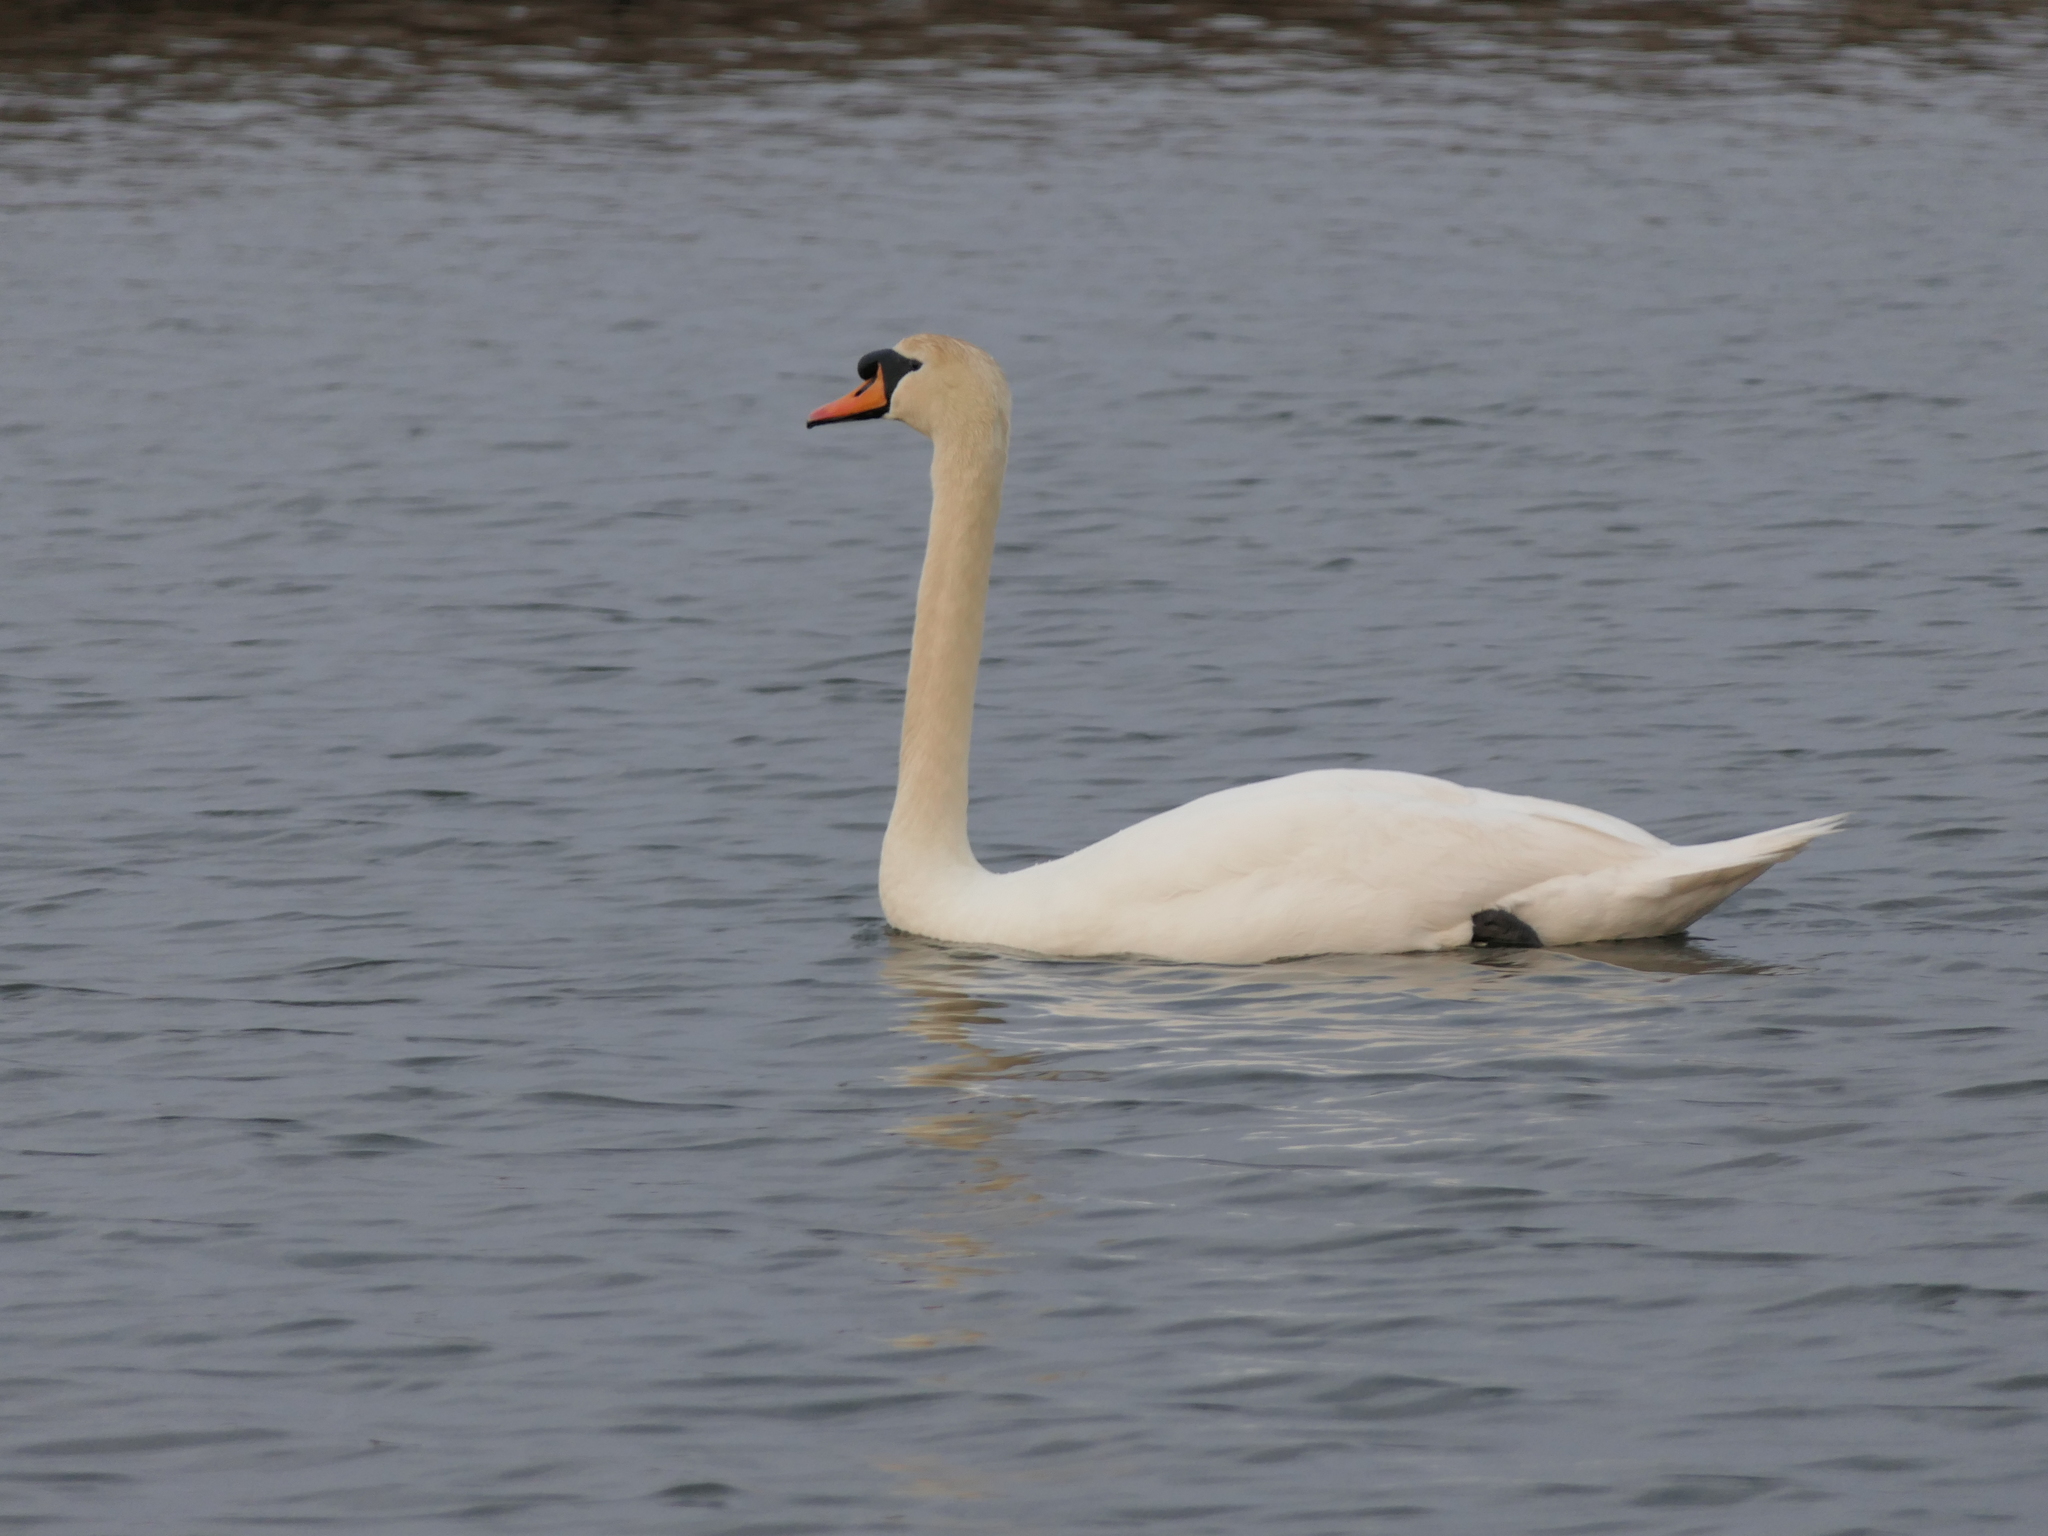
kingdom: Animalia
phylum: Chordata
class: Aves
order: Anseriformes
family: Anatidae
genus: Cygnus
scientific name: Cygnus olor
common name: Mute swan
